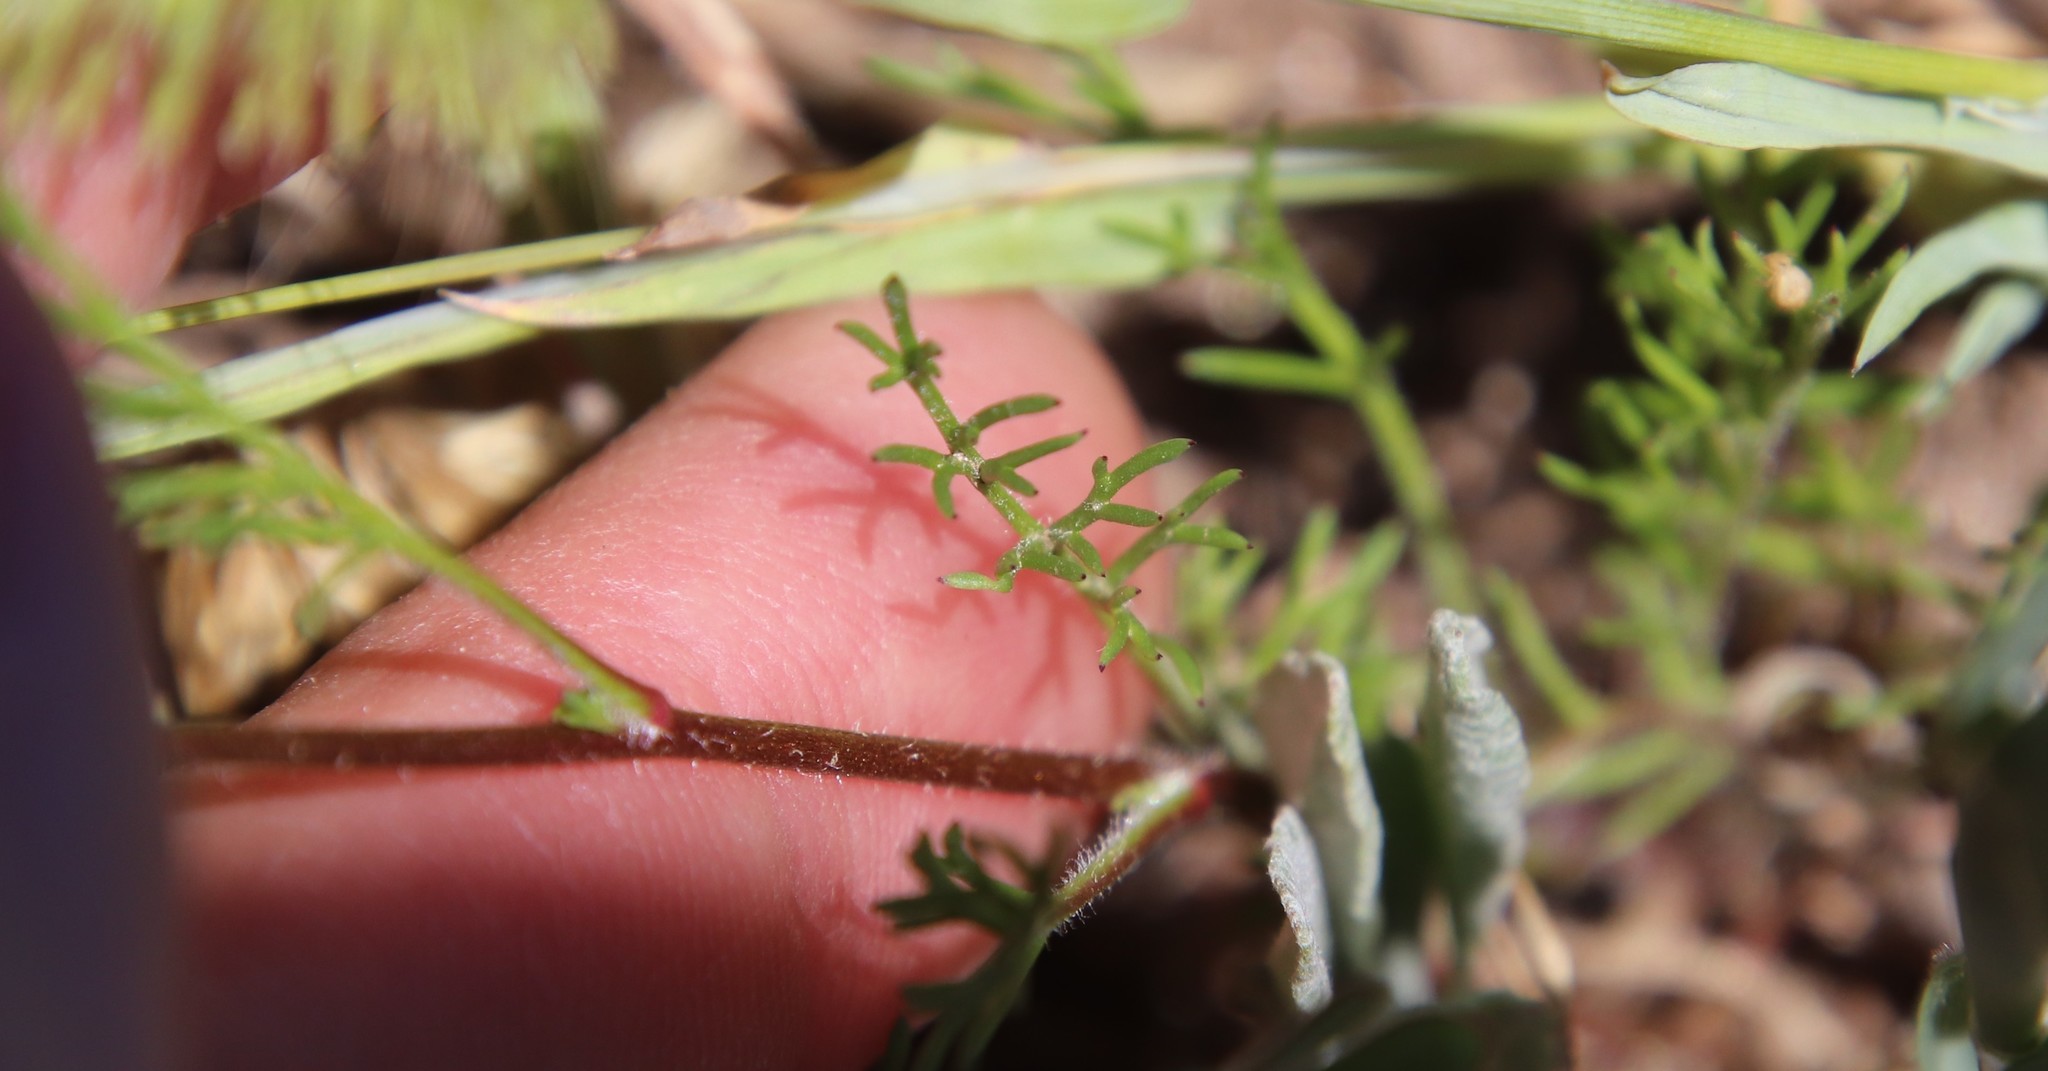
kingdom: Plantae
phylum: Tracheophyta
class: Magnoliopsida
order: Ericales
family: Polemoniaceae
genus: Gilia
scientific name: Gilia angelensis
